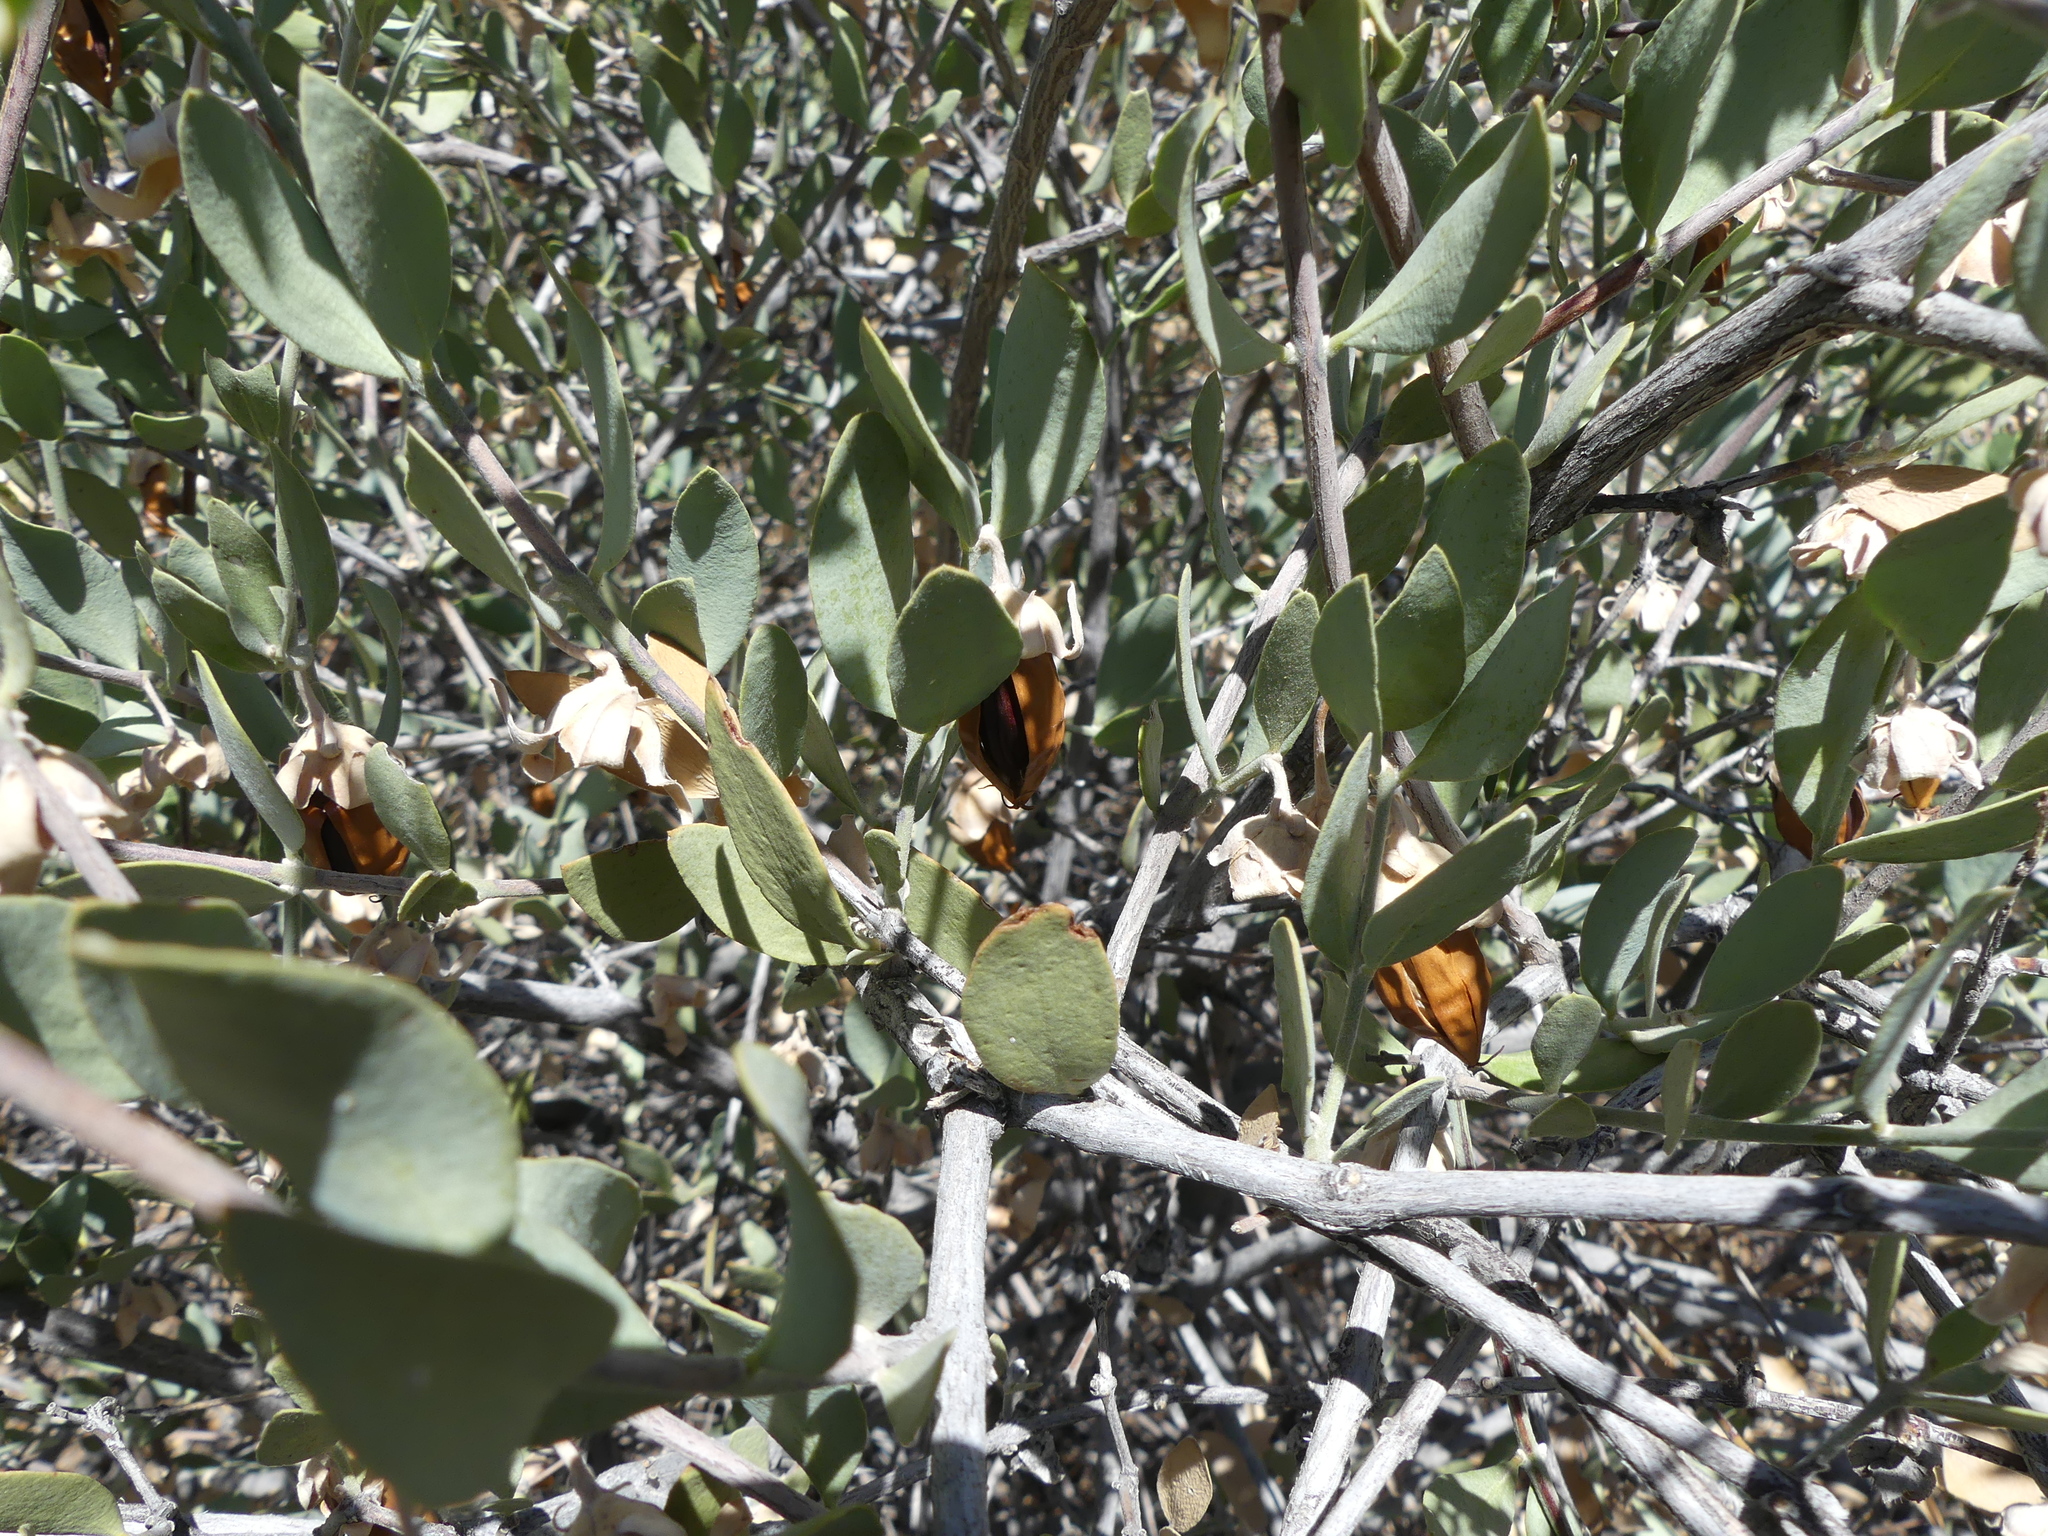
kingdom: Plantae
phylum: Tracheophyta
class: Magnoliopsida
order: Caryophyllales
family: Simmondsiaceae
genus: Simmondsia
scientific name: Simmondsia chinensis
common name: Jojoba
